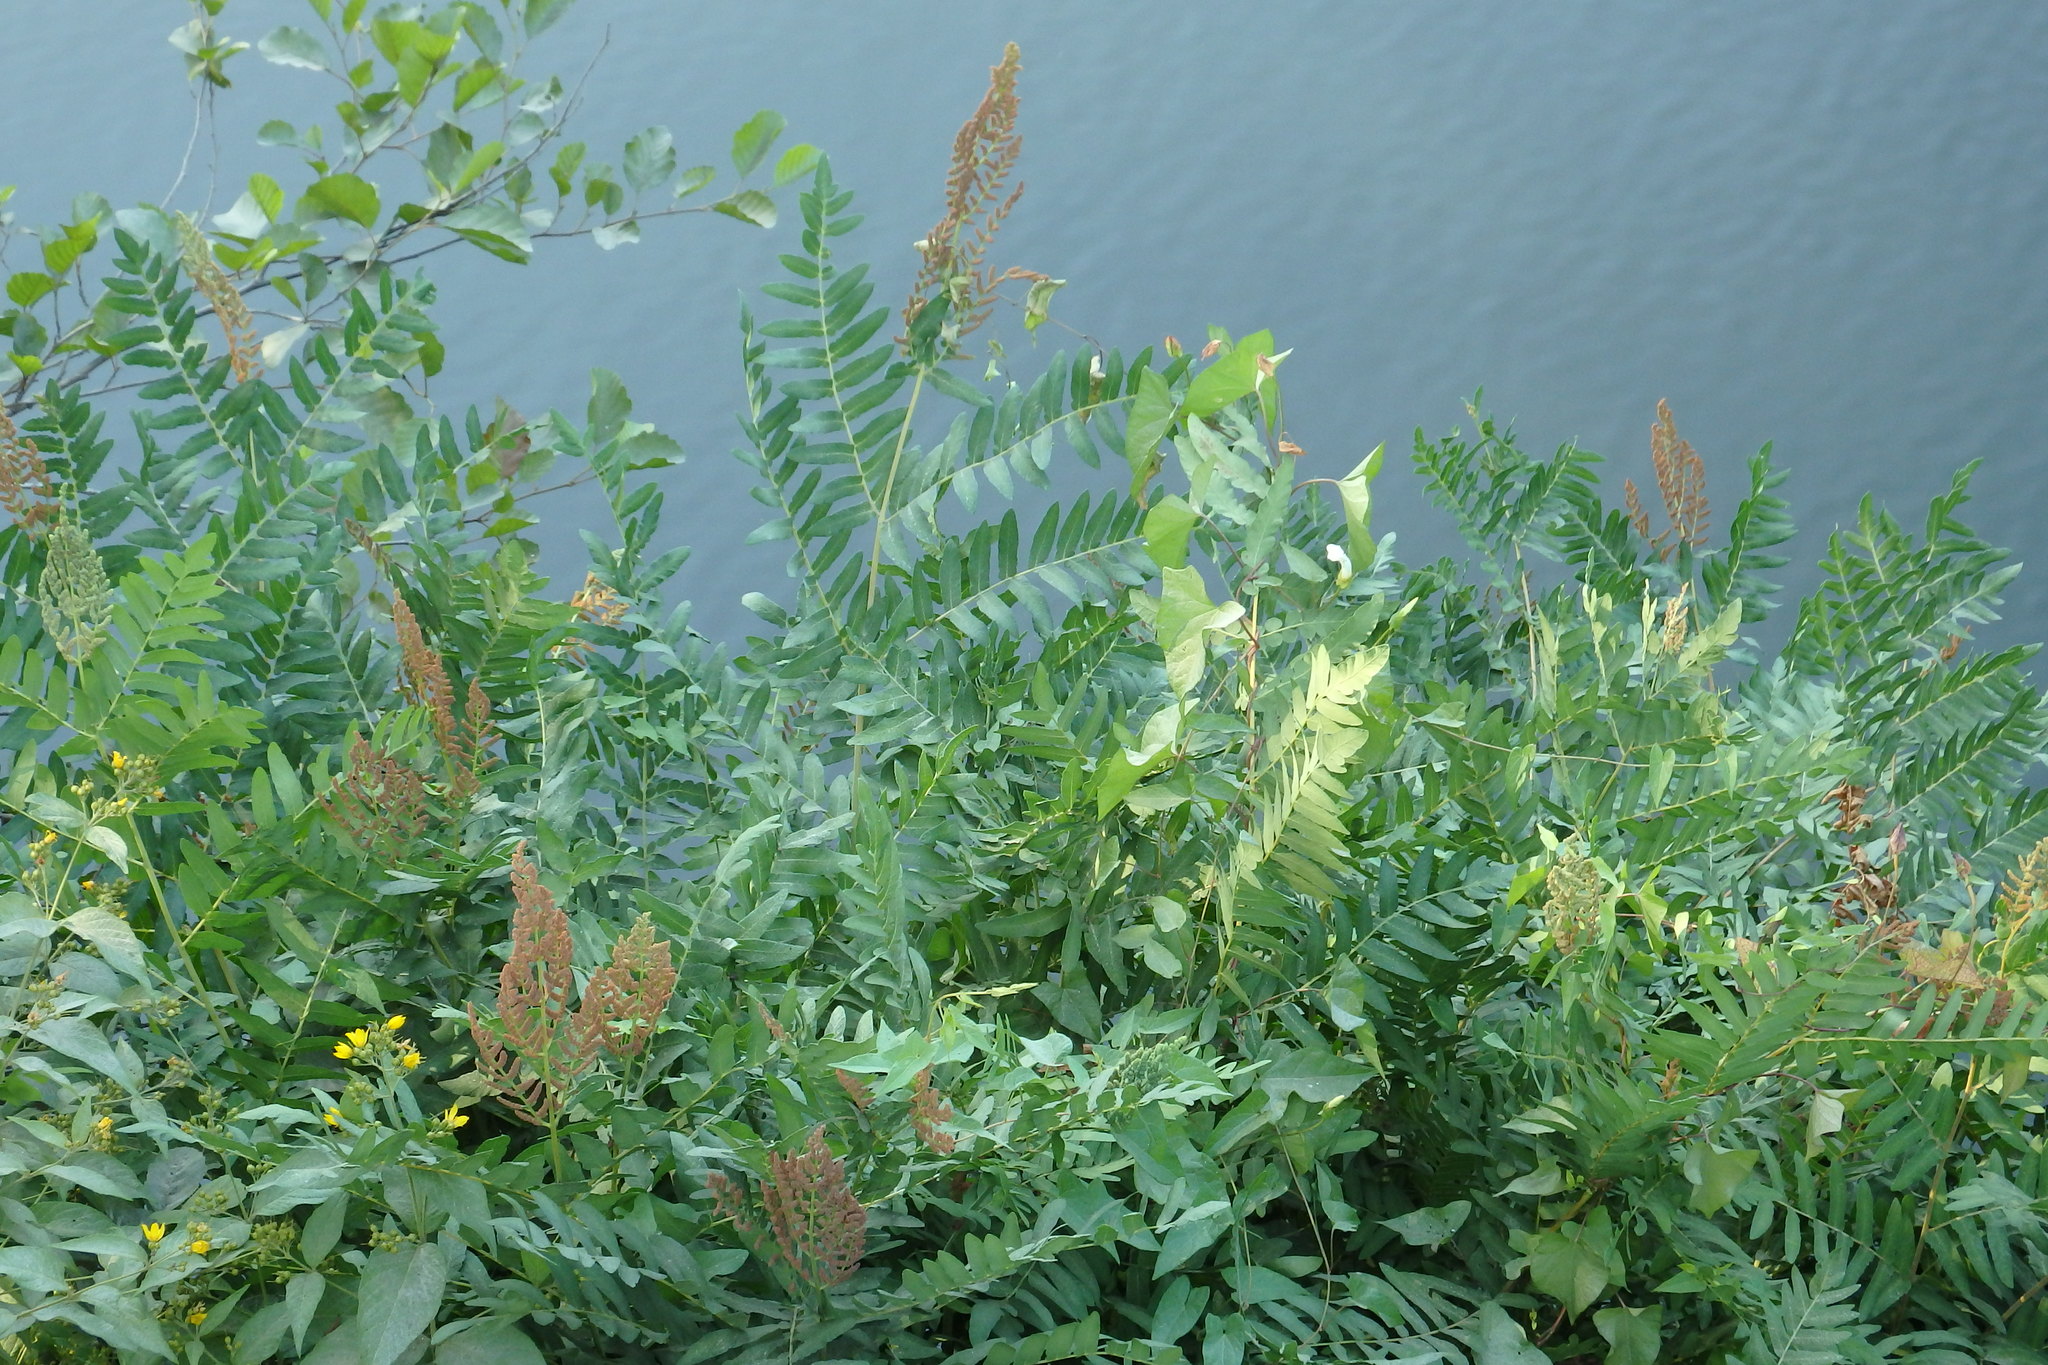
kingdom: Plantae
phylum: Tracheophyta
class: Polypodiopsida
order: Osmundales
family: Osmundaceae
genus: Osmunda
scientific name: Osmunda regalis
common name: Royal fern
